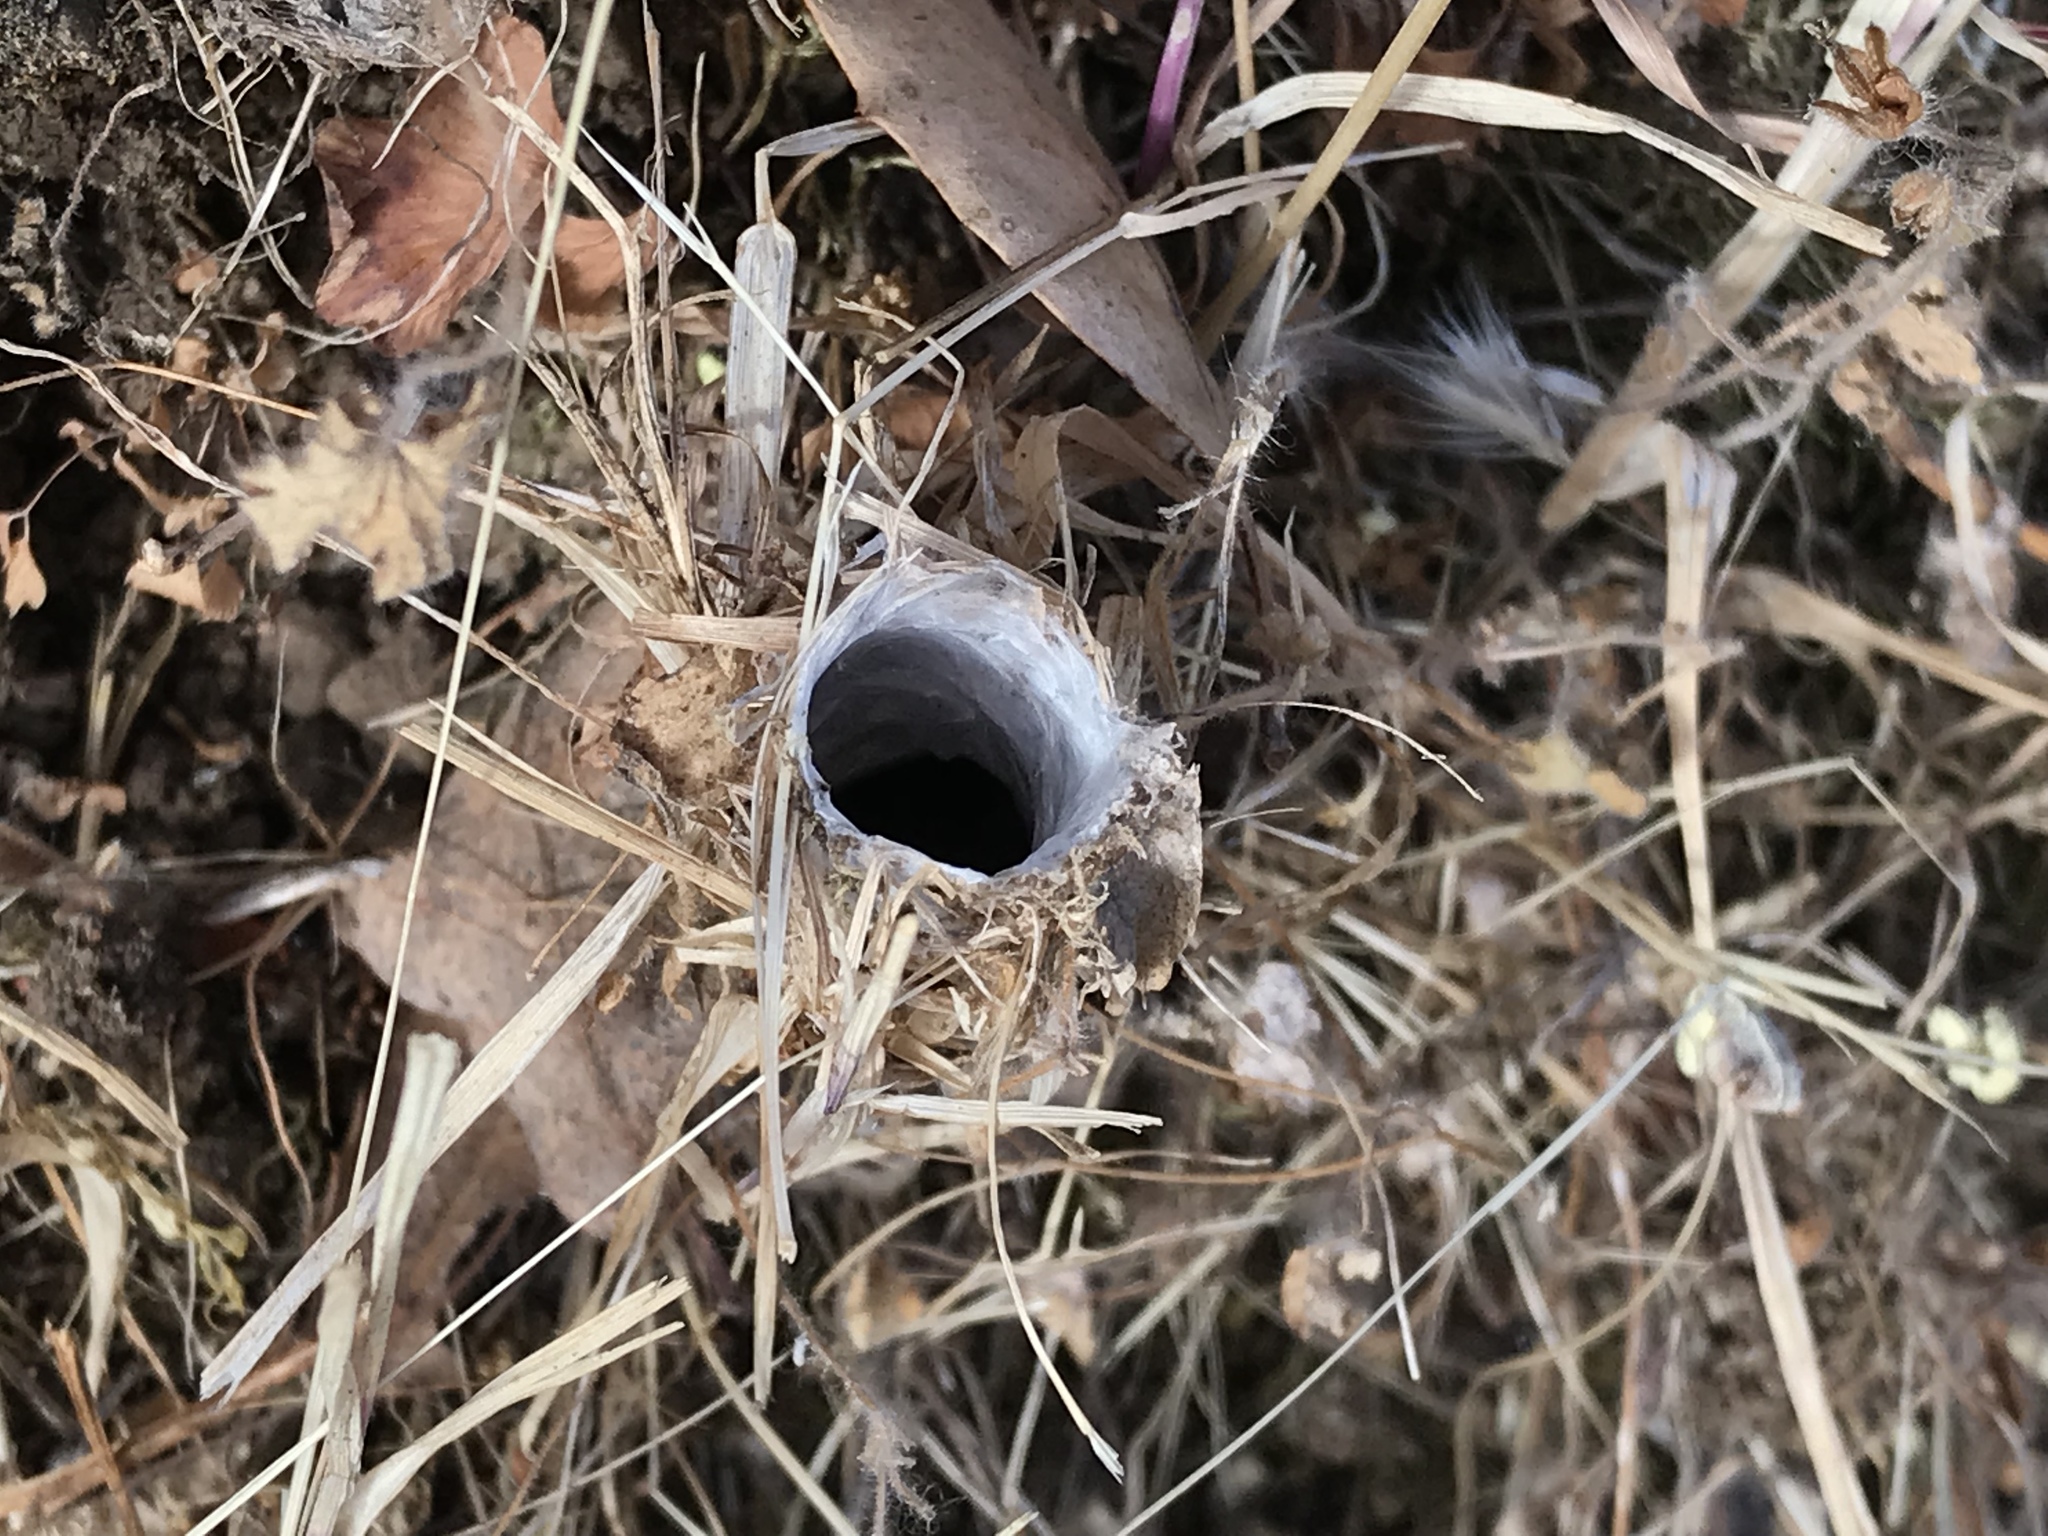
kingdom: Animalia
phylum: Arthropoda
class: Arachnida
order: Araneae
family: Antrodiaetidae
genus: Atypoides
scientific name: Atypoides riversi
